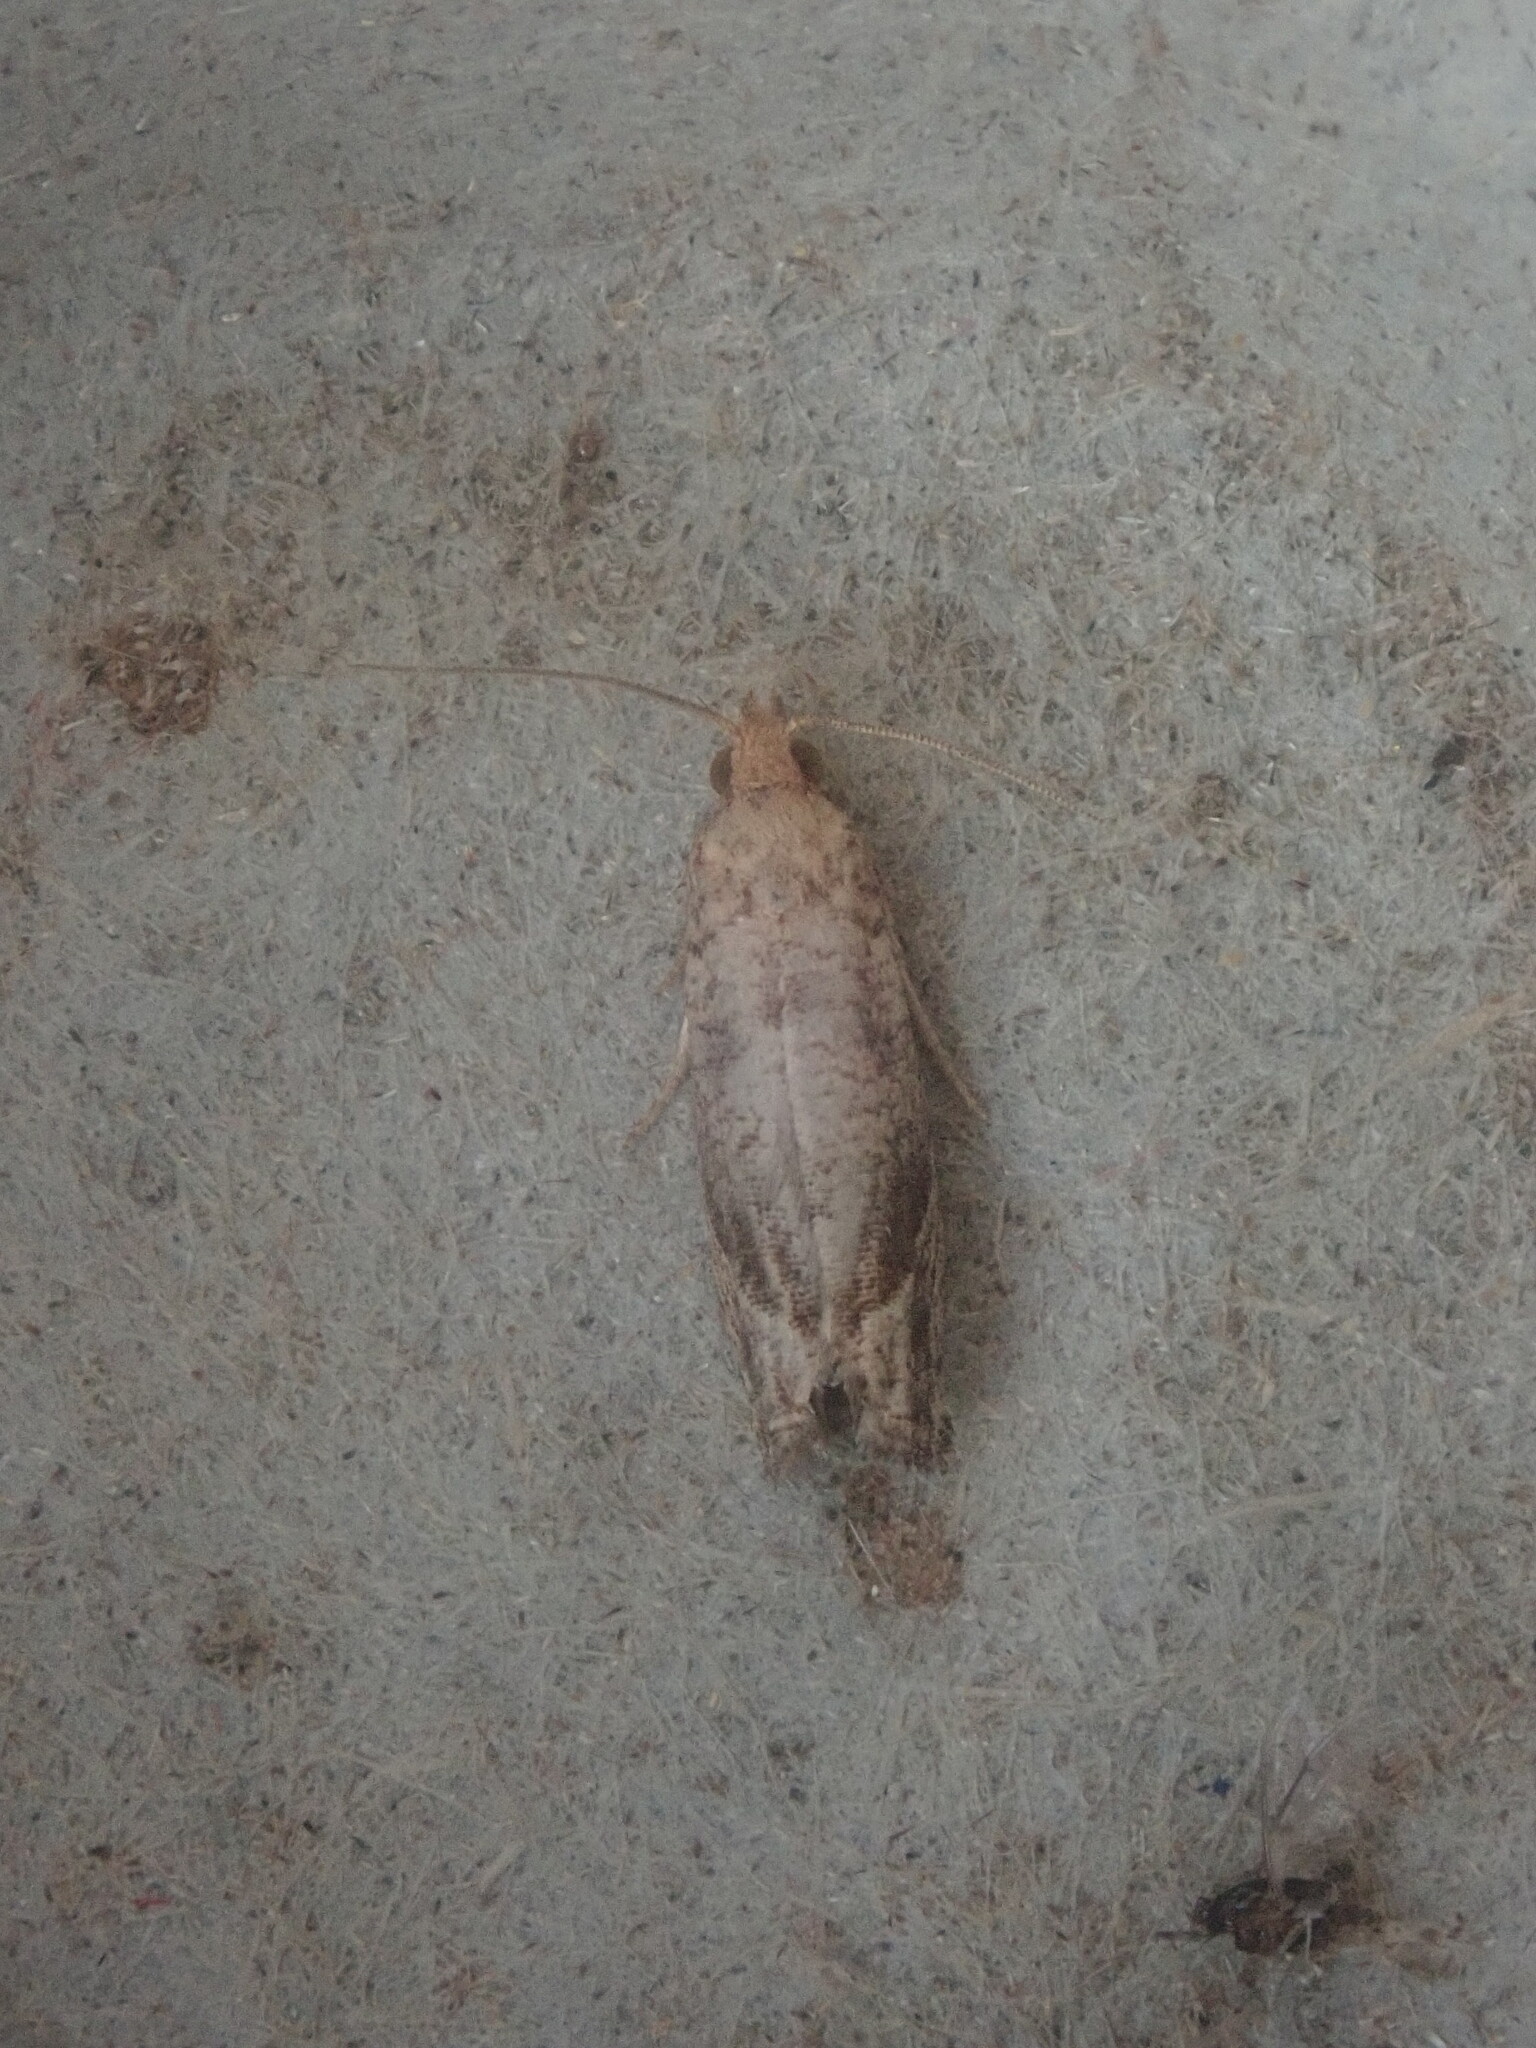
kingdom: Animalia
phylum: Arthropoda
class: Insecta
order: Lepidoptera
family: Tortricidae
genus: Pelochrista
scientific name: Pelochrista derelicta
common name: Derelict pelochrista moth
